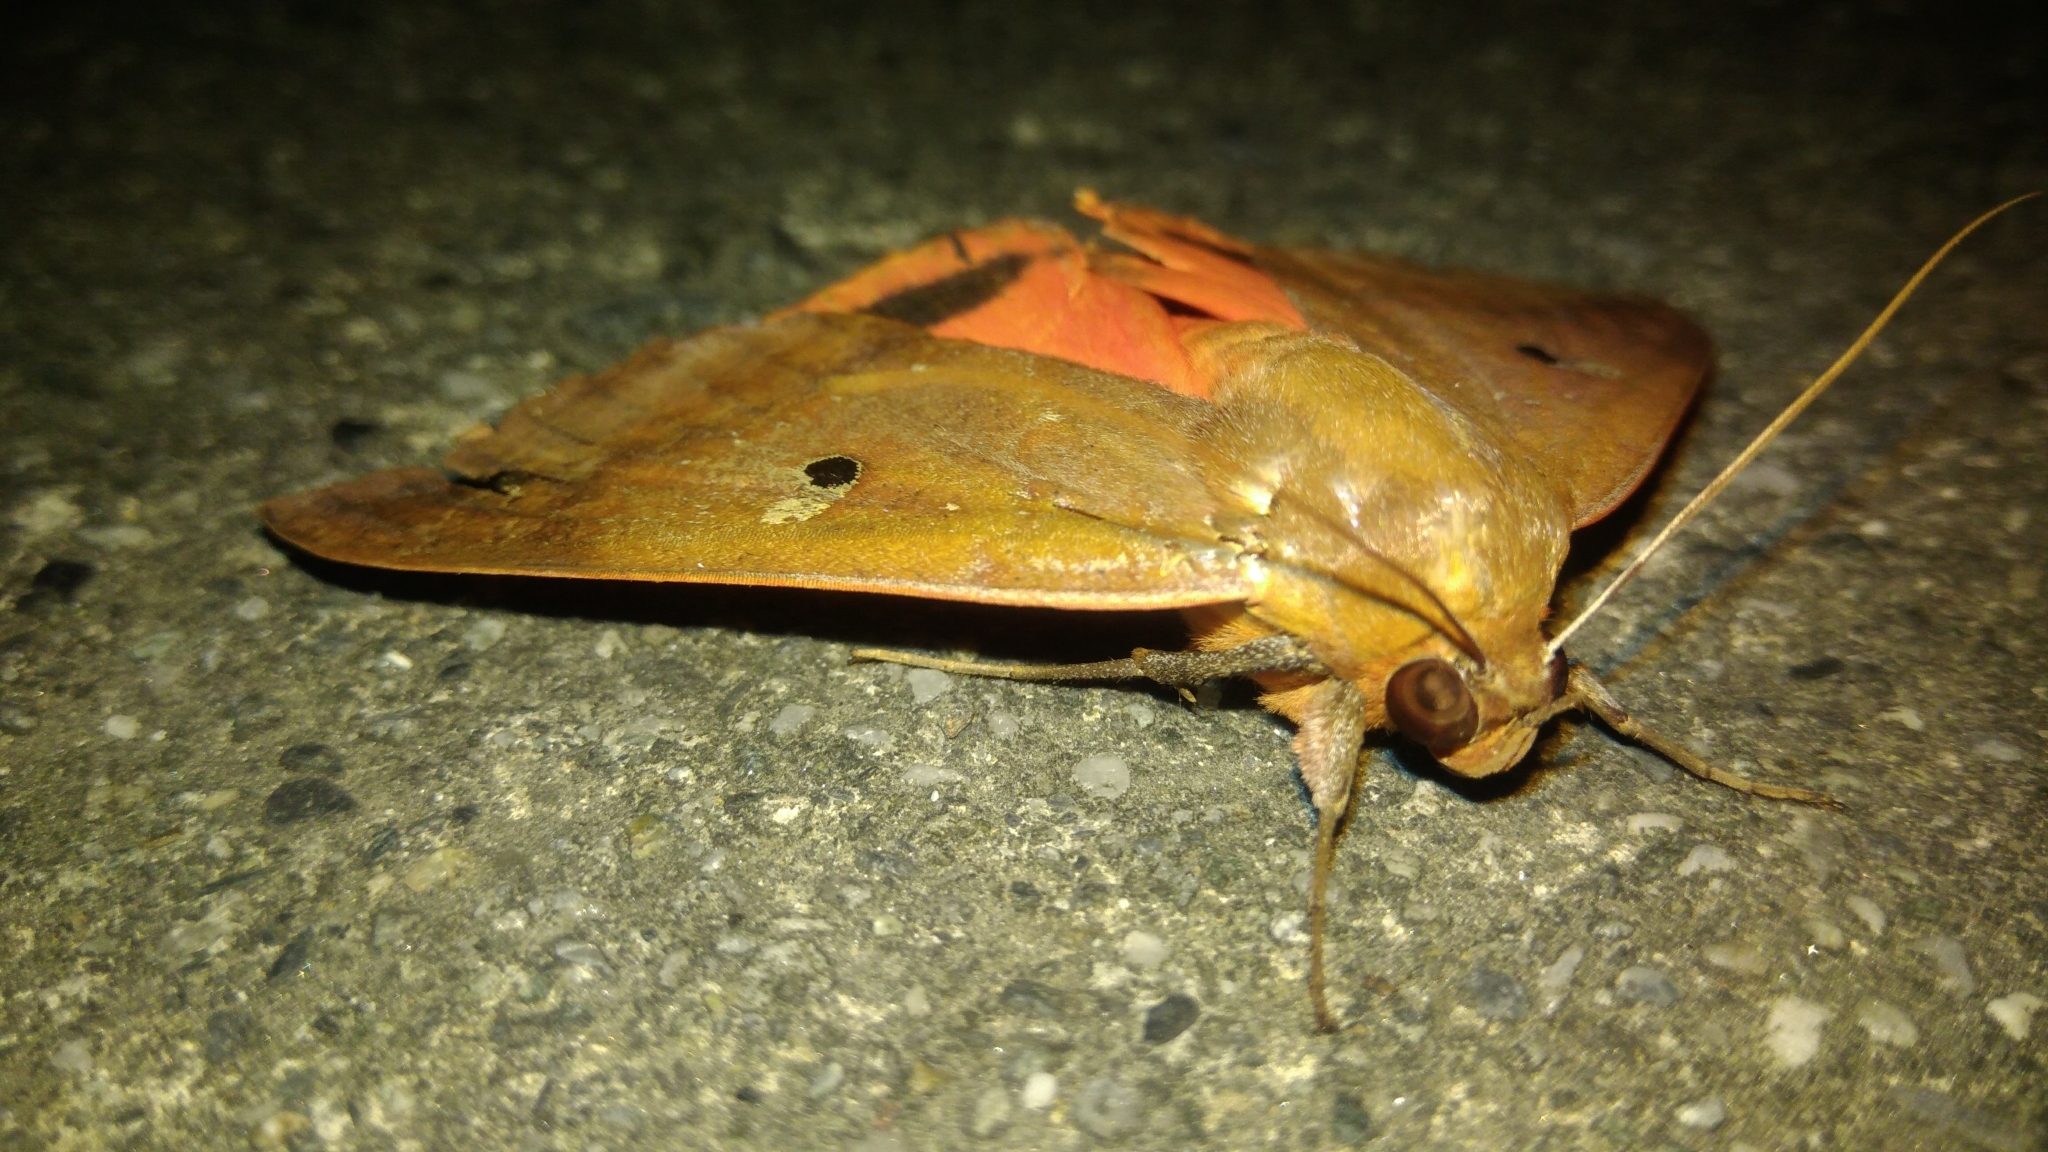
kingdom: Animalia
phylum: Arthropoda
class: Insecta
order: Lepidoptera
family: Erebidae
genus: Thyas
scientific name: Thyas honesta
